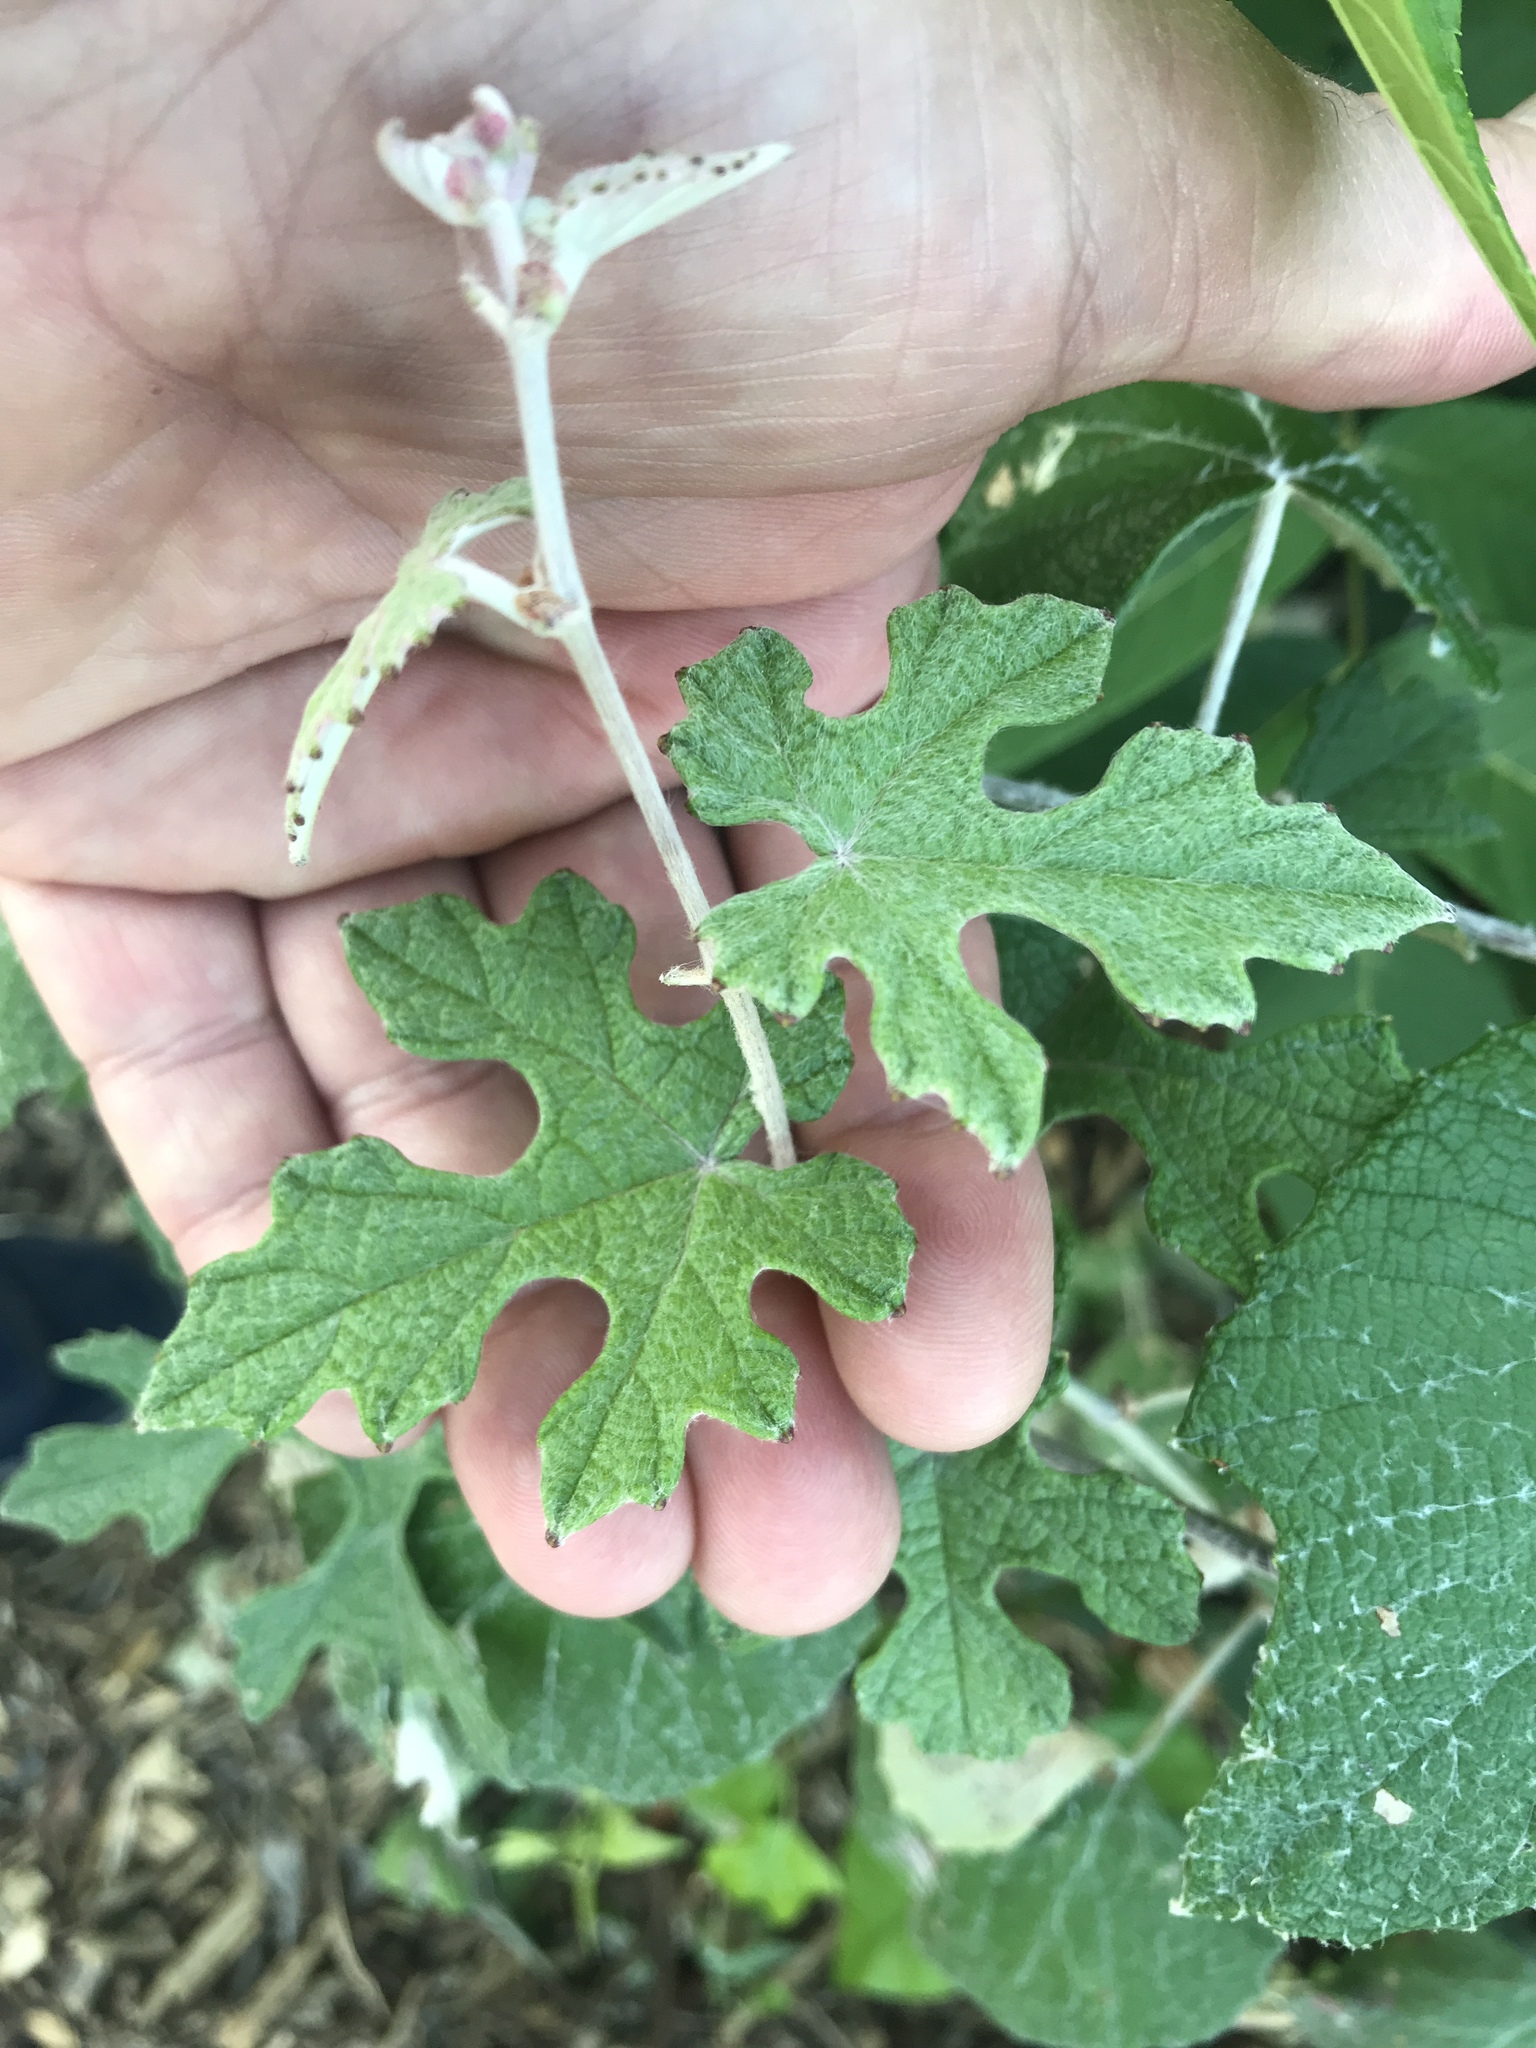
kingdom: Plantae
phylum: Tracheophyta
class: Magnoliopsida
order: Vitales
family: Vitaceae
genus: Vitis
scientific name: Vitis mustangensis
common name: Mustang grape
